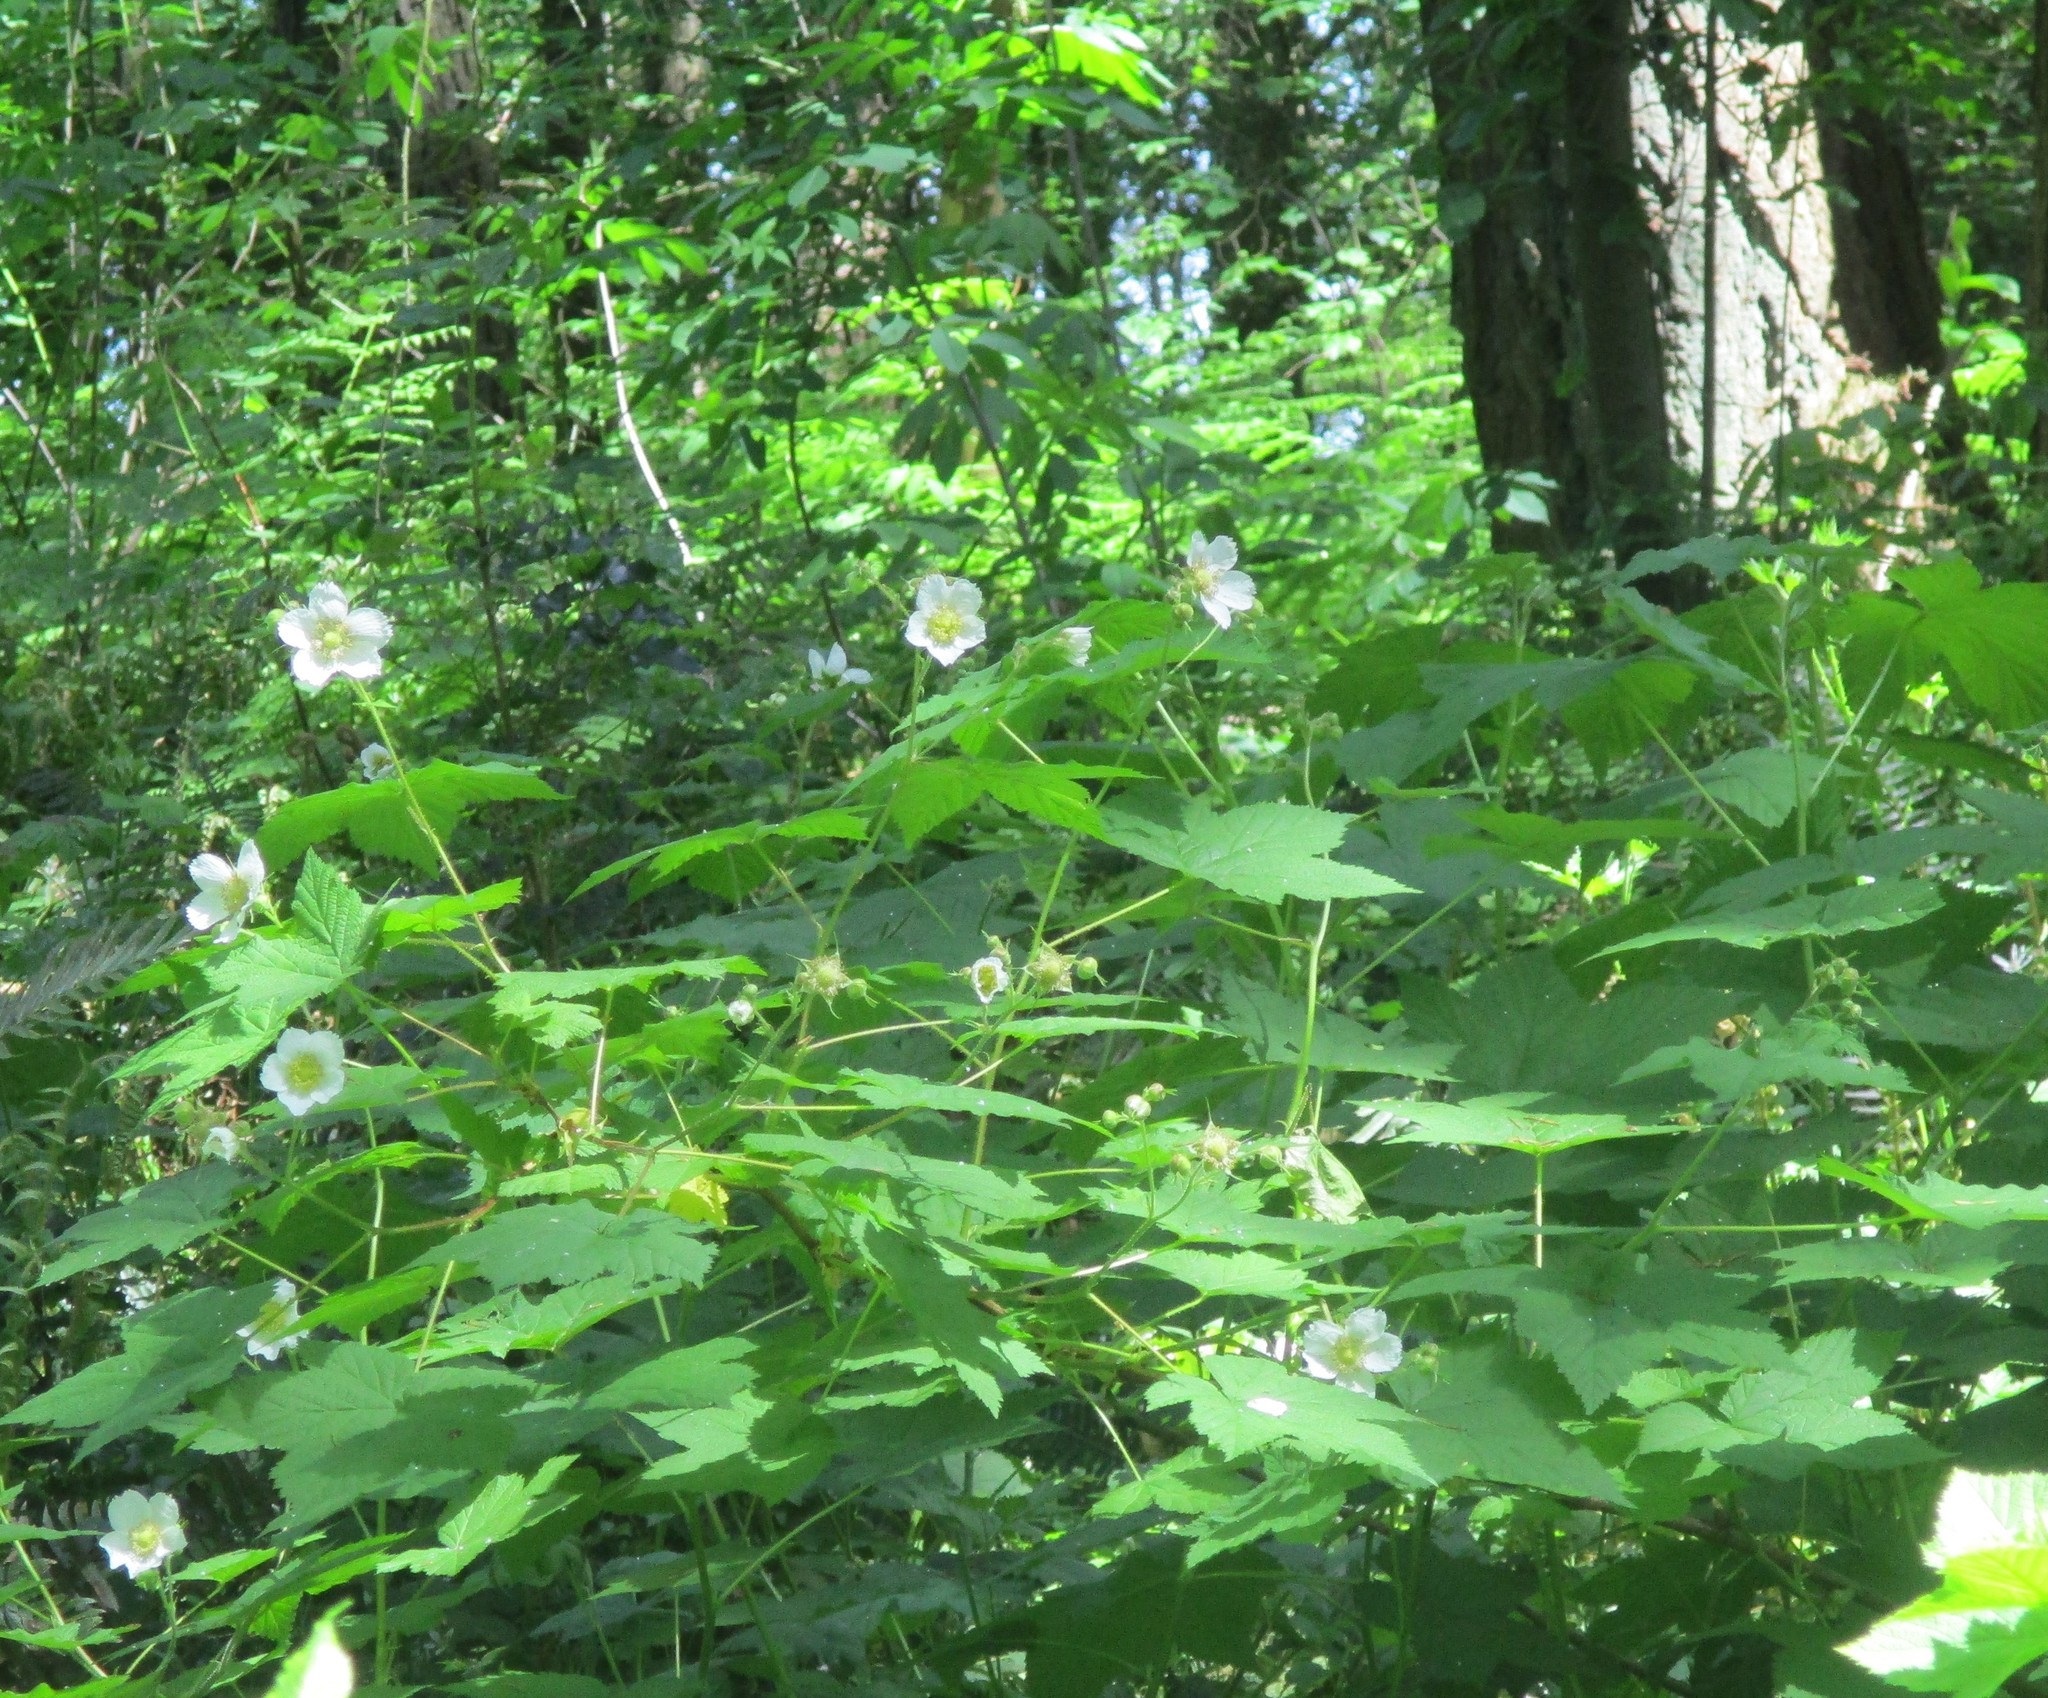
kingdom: Plantae
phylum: Tracheophyta
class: Magnoliopsida
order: Rosales
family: Rosaceae
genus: Rubus
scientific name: Rubus parviflorus
